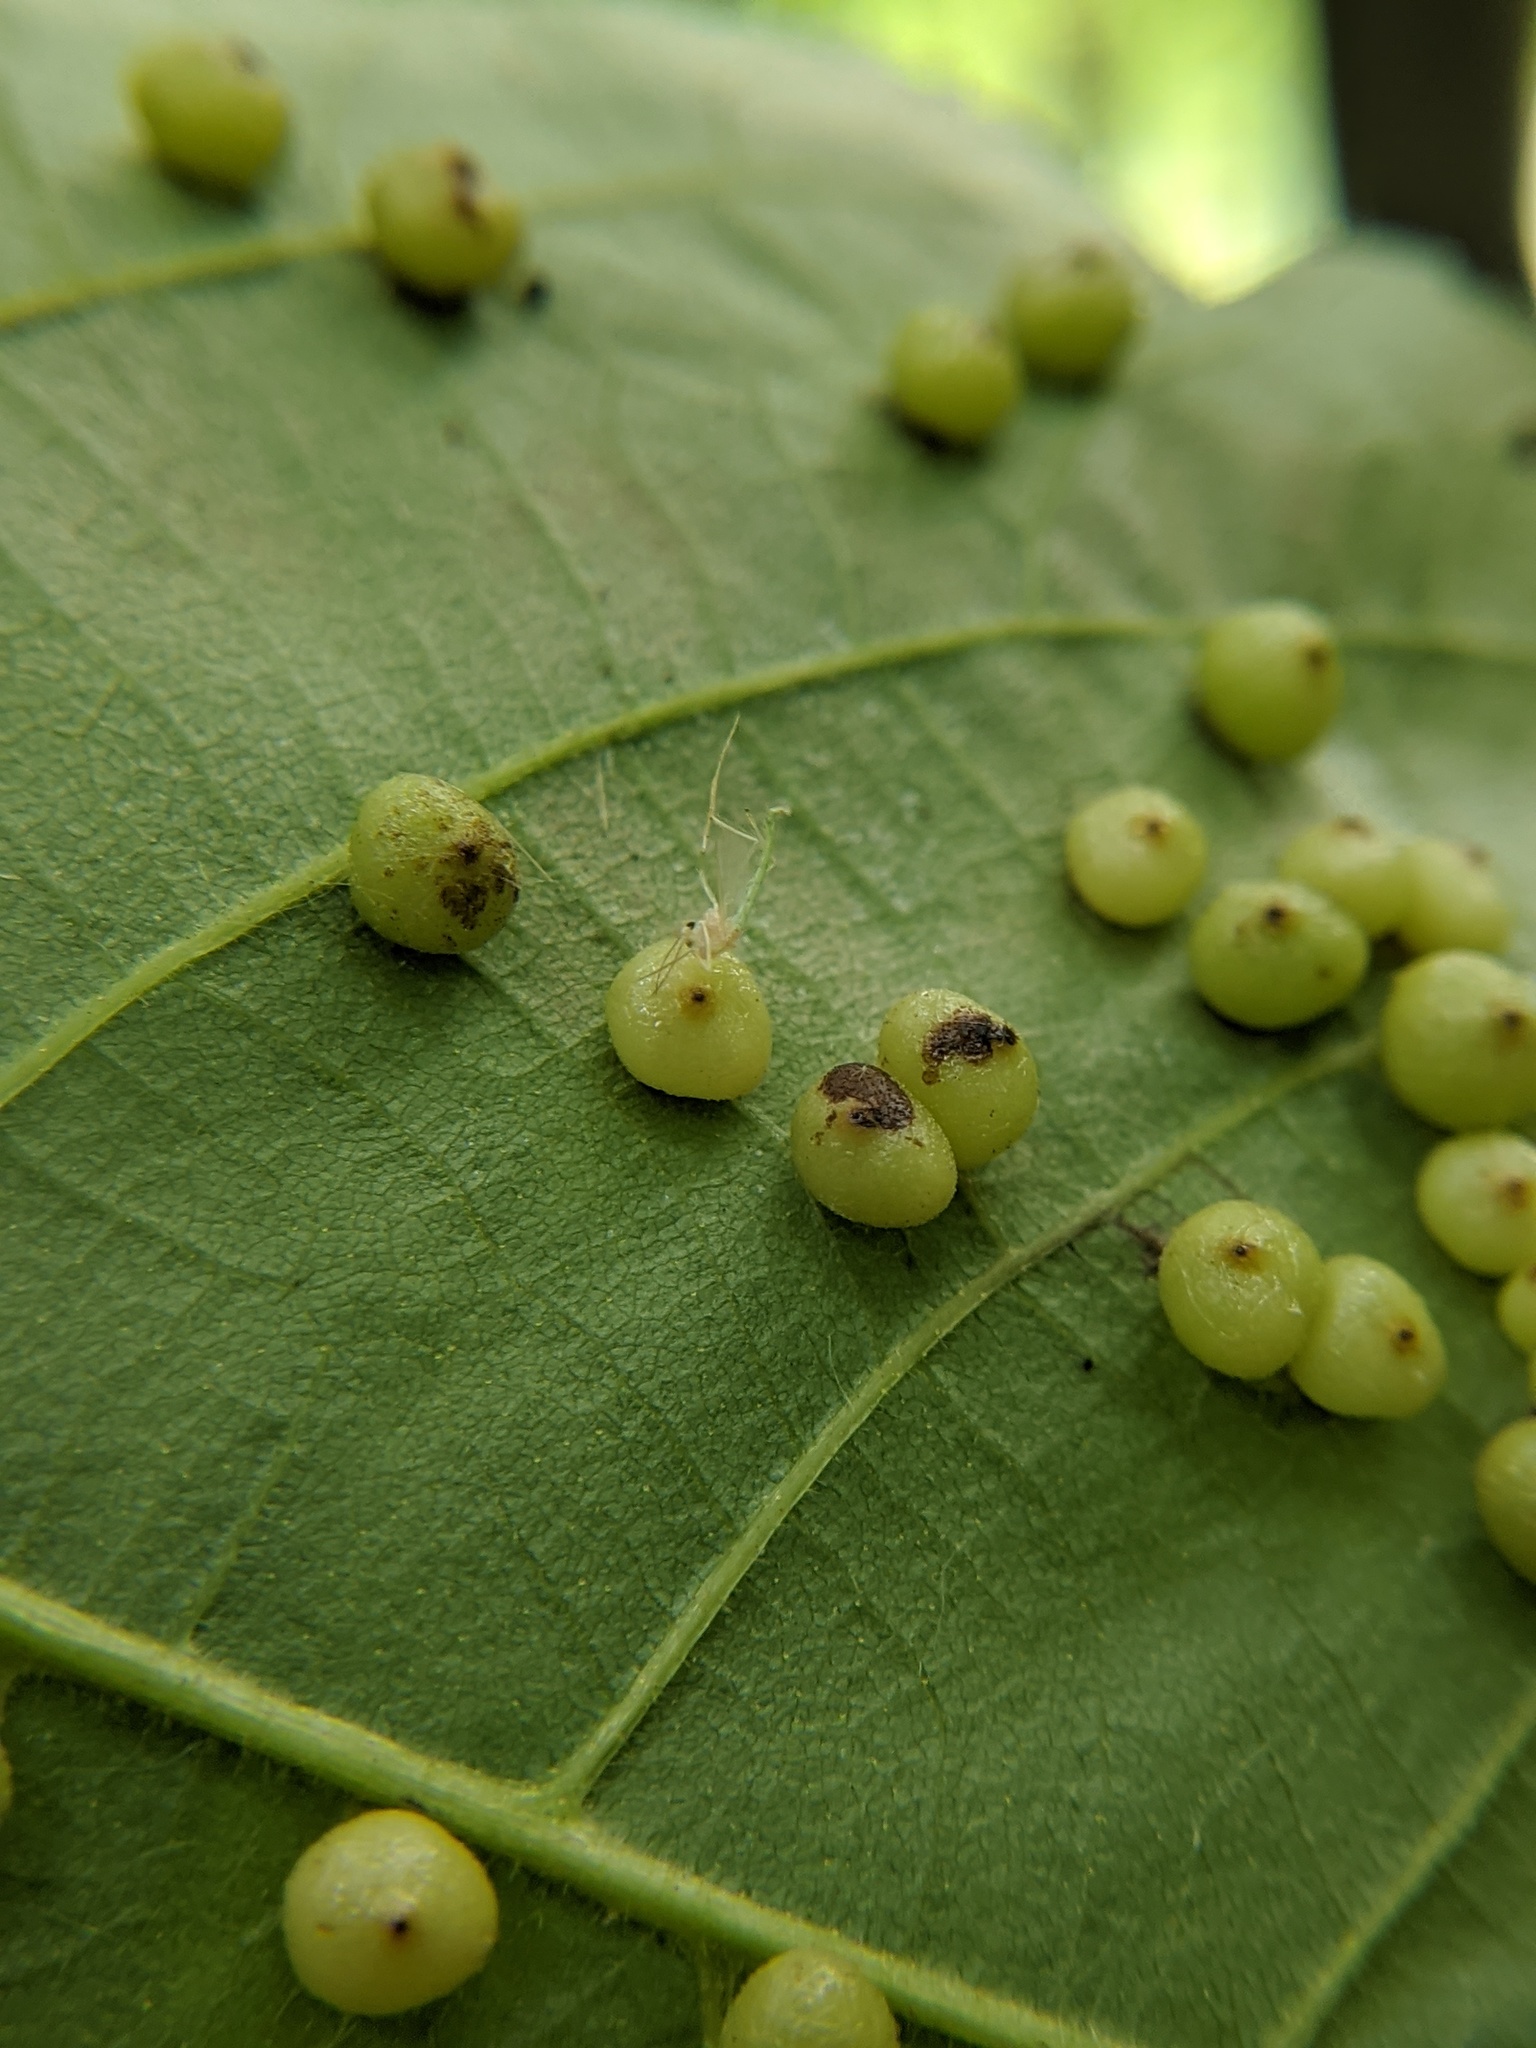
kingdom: Animalia
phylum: Arthropoda
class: Insecta
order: Diptera
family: Cecidomyiidae
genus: Caryomyia
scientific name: Caryomyia caryae
